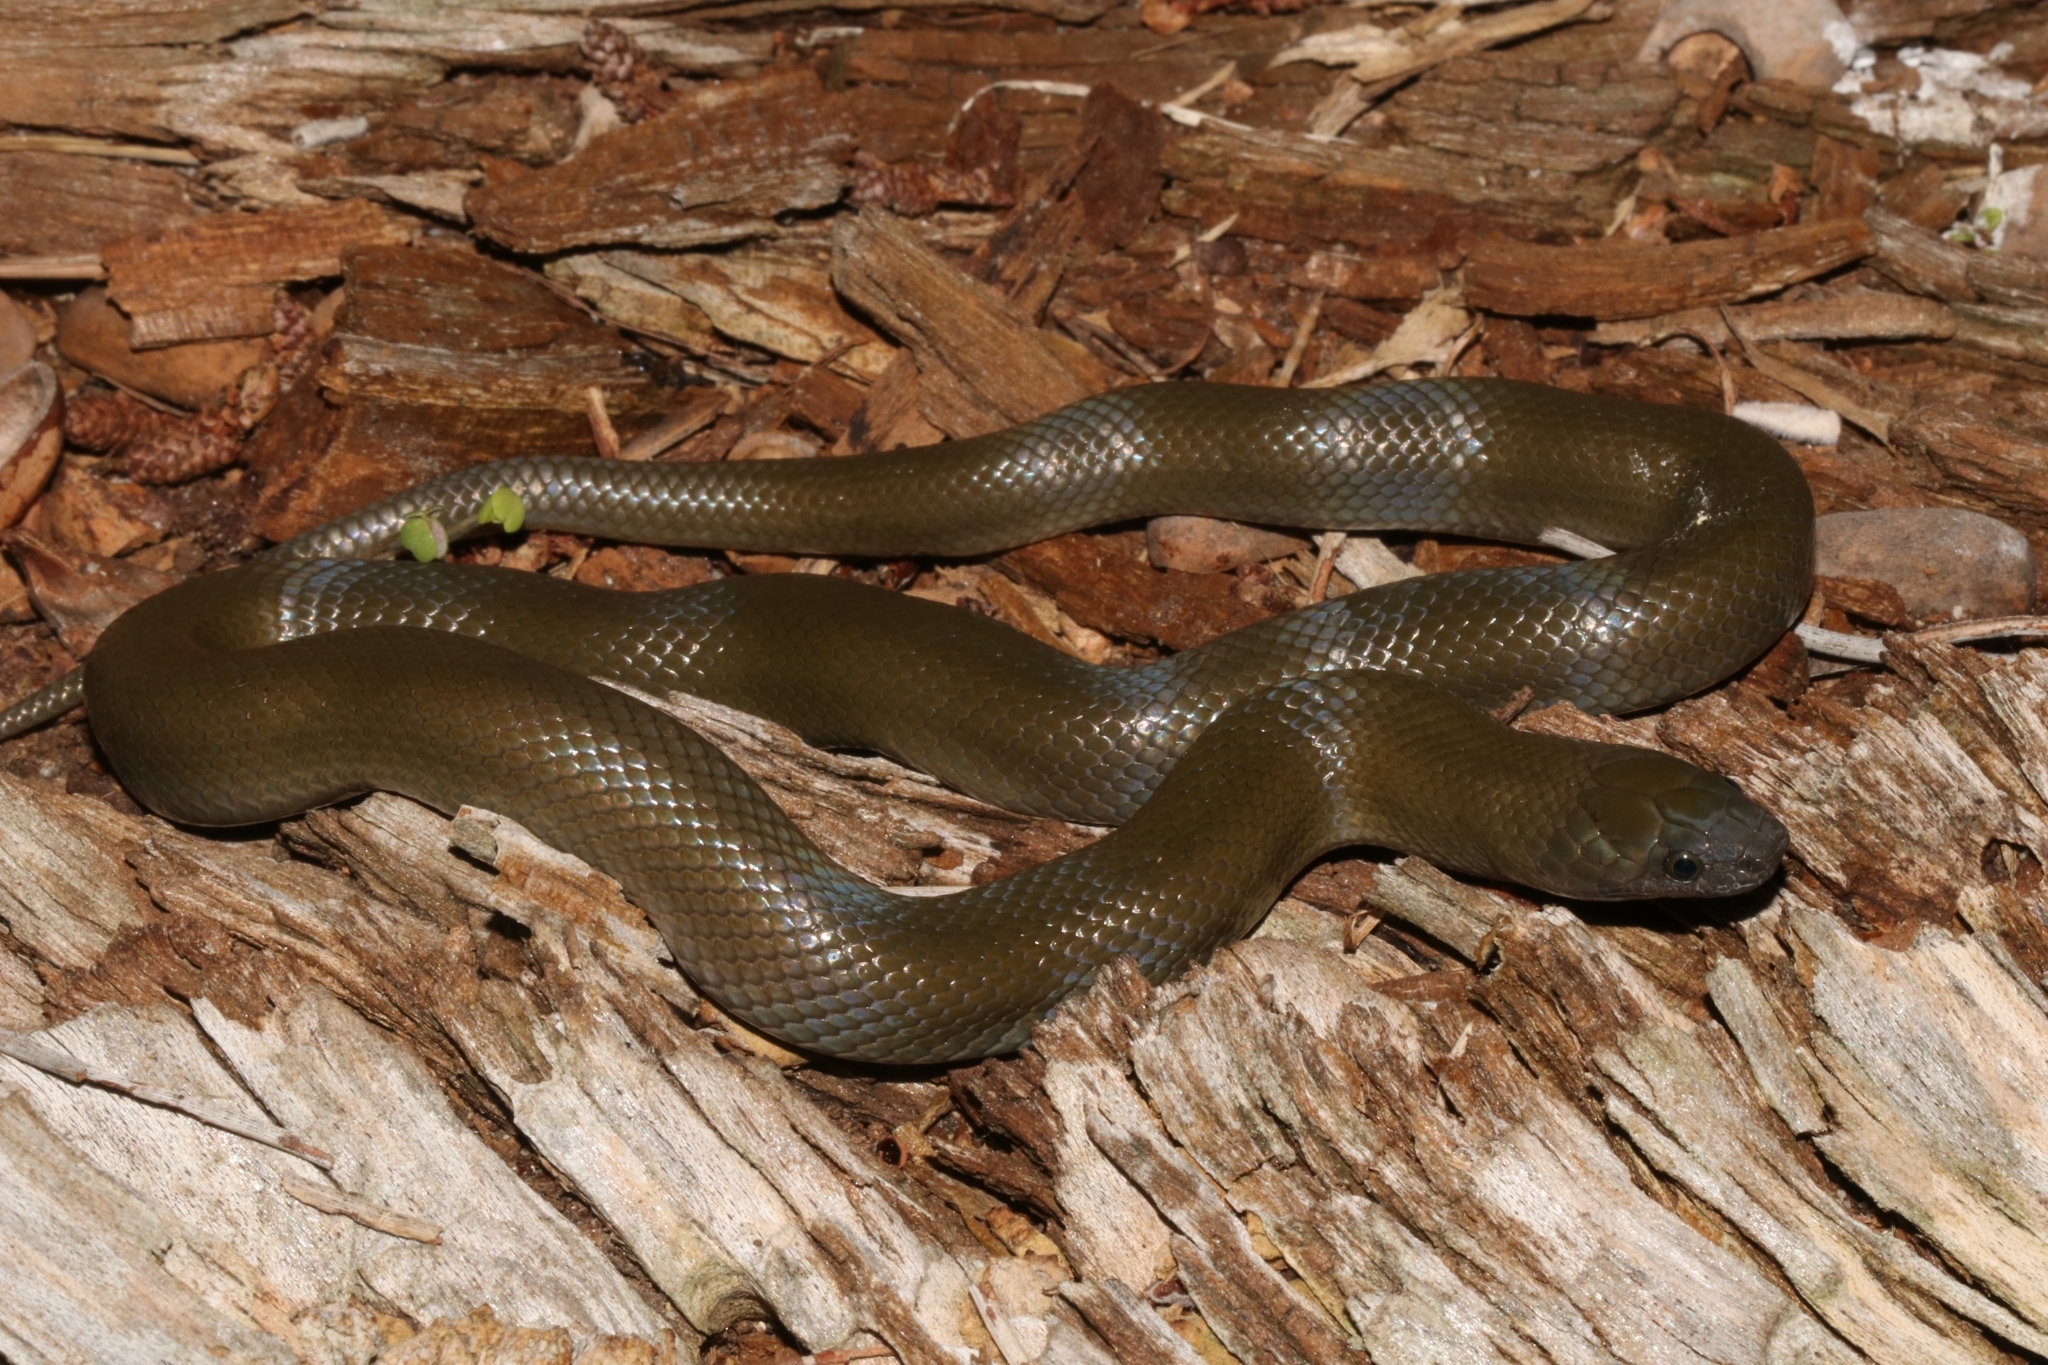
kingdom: Animalia
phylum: Chordata
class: Squamata
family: Lamprophiidae
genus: Lycodonomorphus
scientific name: Lycodonomorphus inornatus
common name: Black house snake
